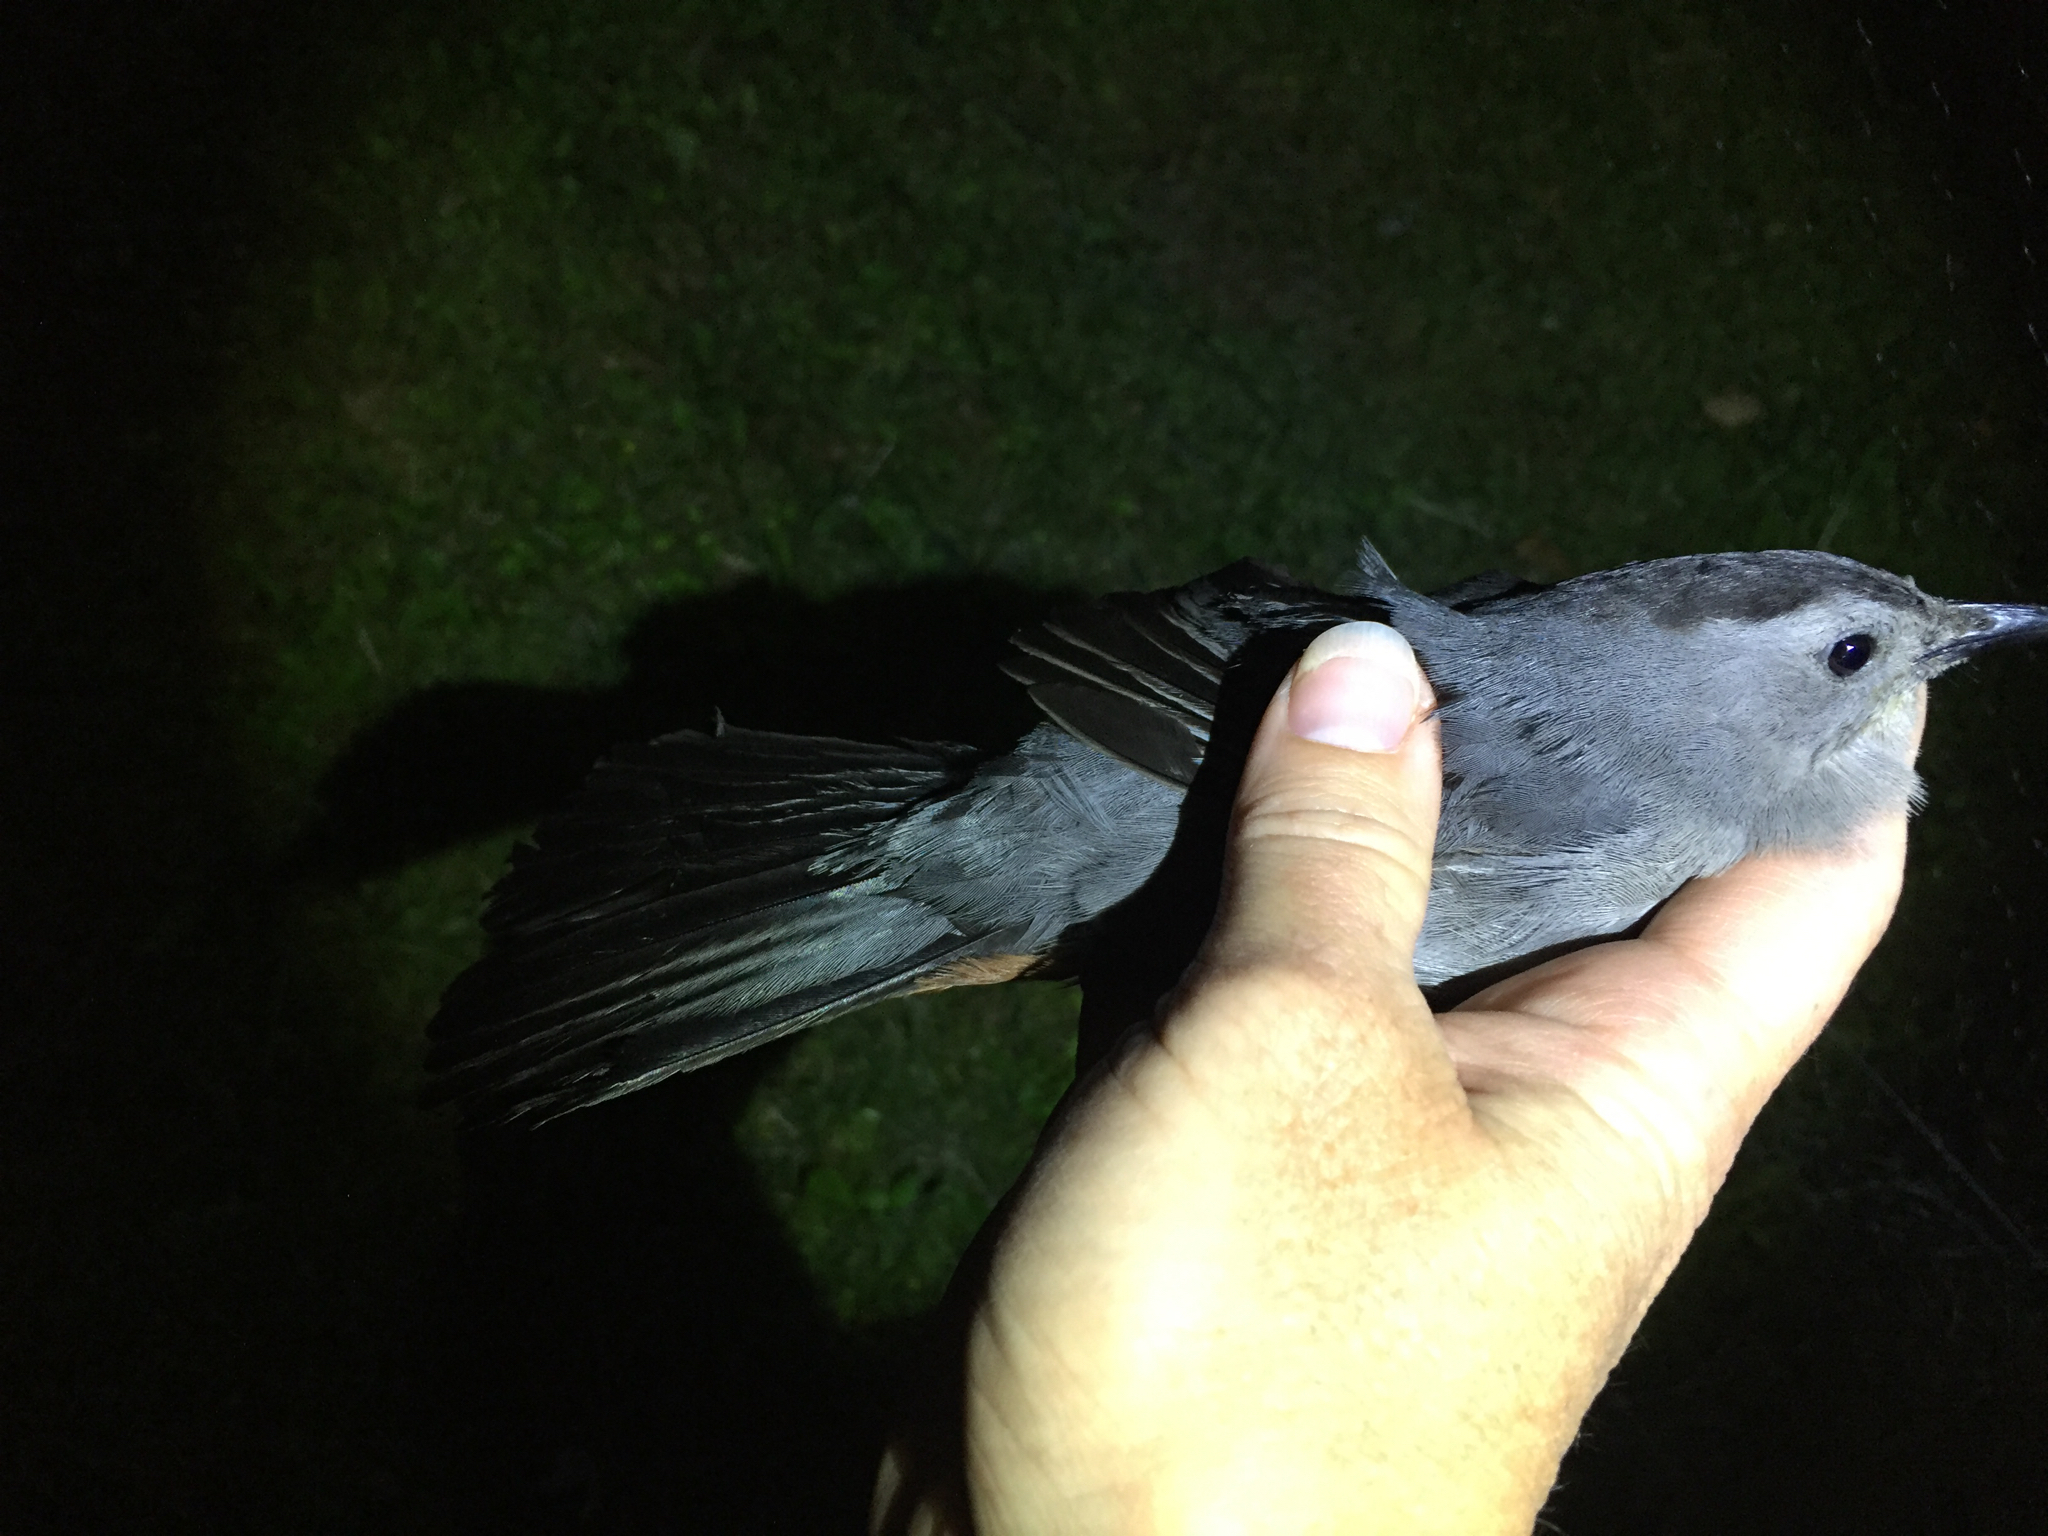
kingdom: Animalia
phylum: Chordata
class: Aves
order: Passeriformes
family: Mimidae
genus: Dumetella
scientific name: Dumetella carolinensis
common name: Gray catbird
